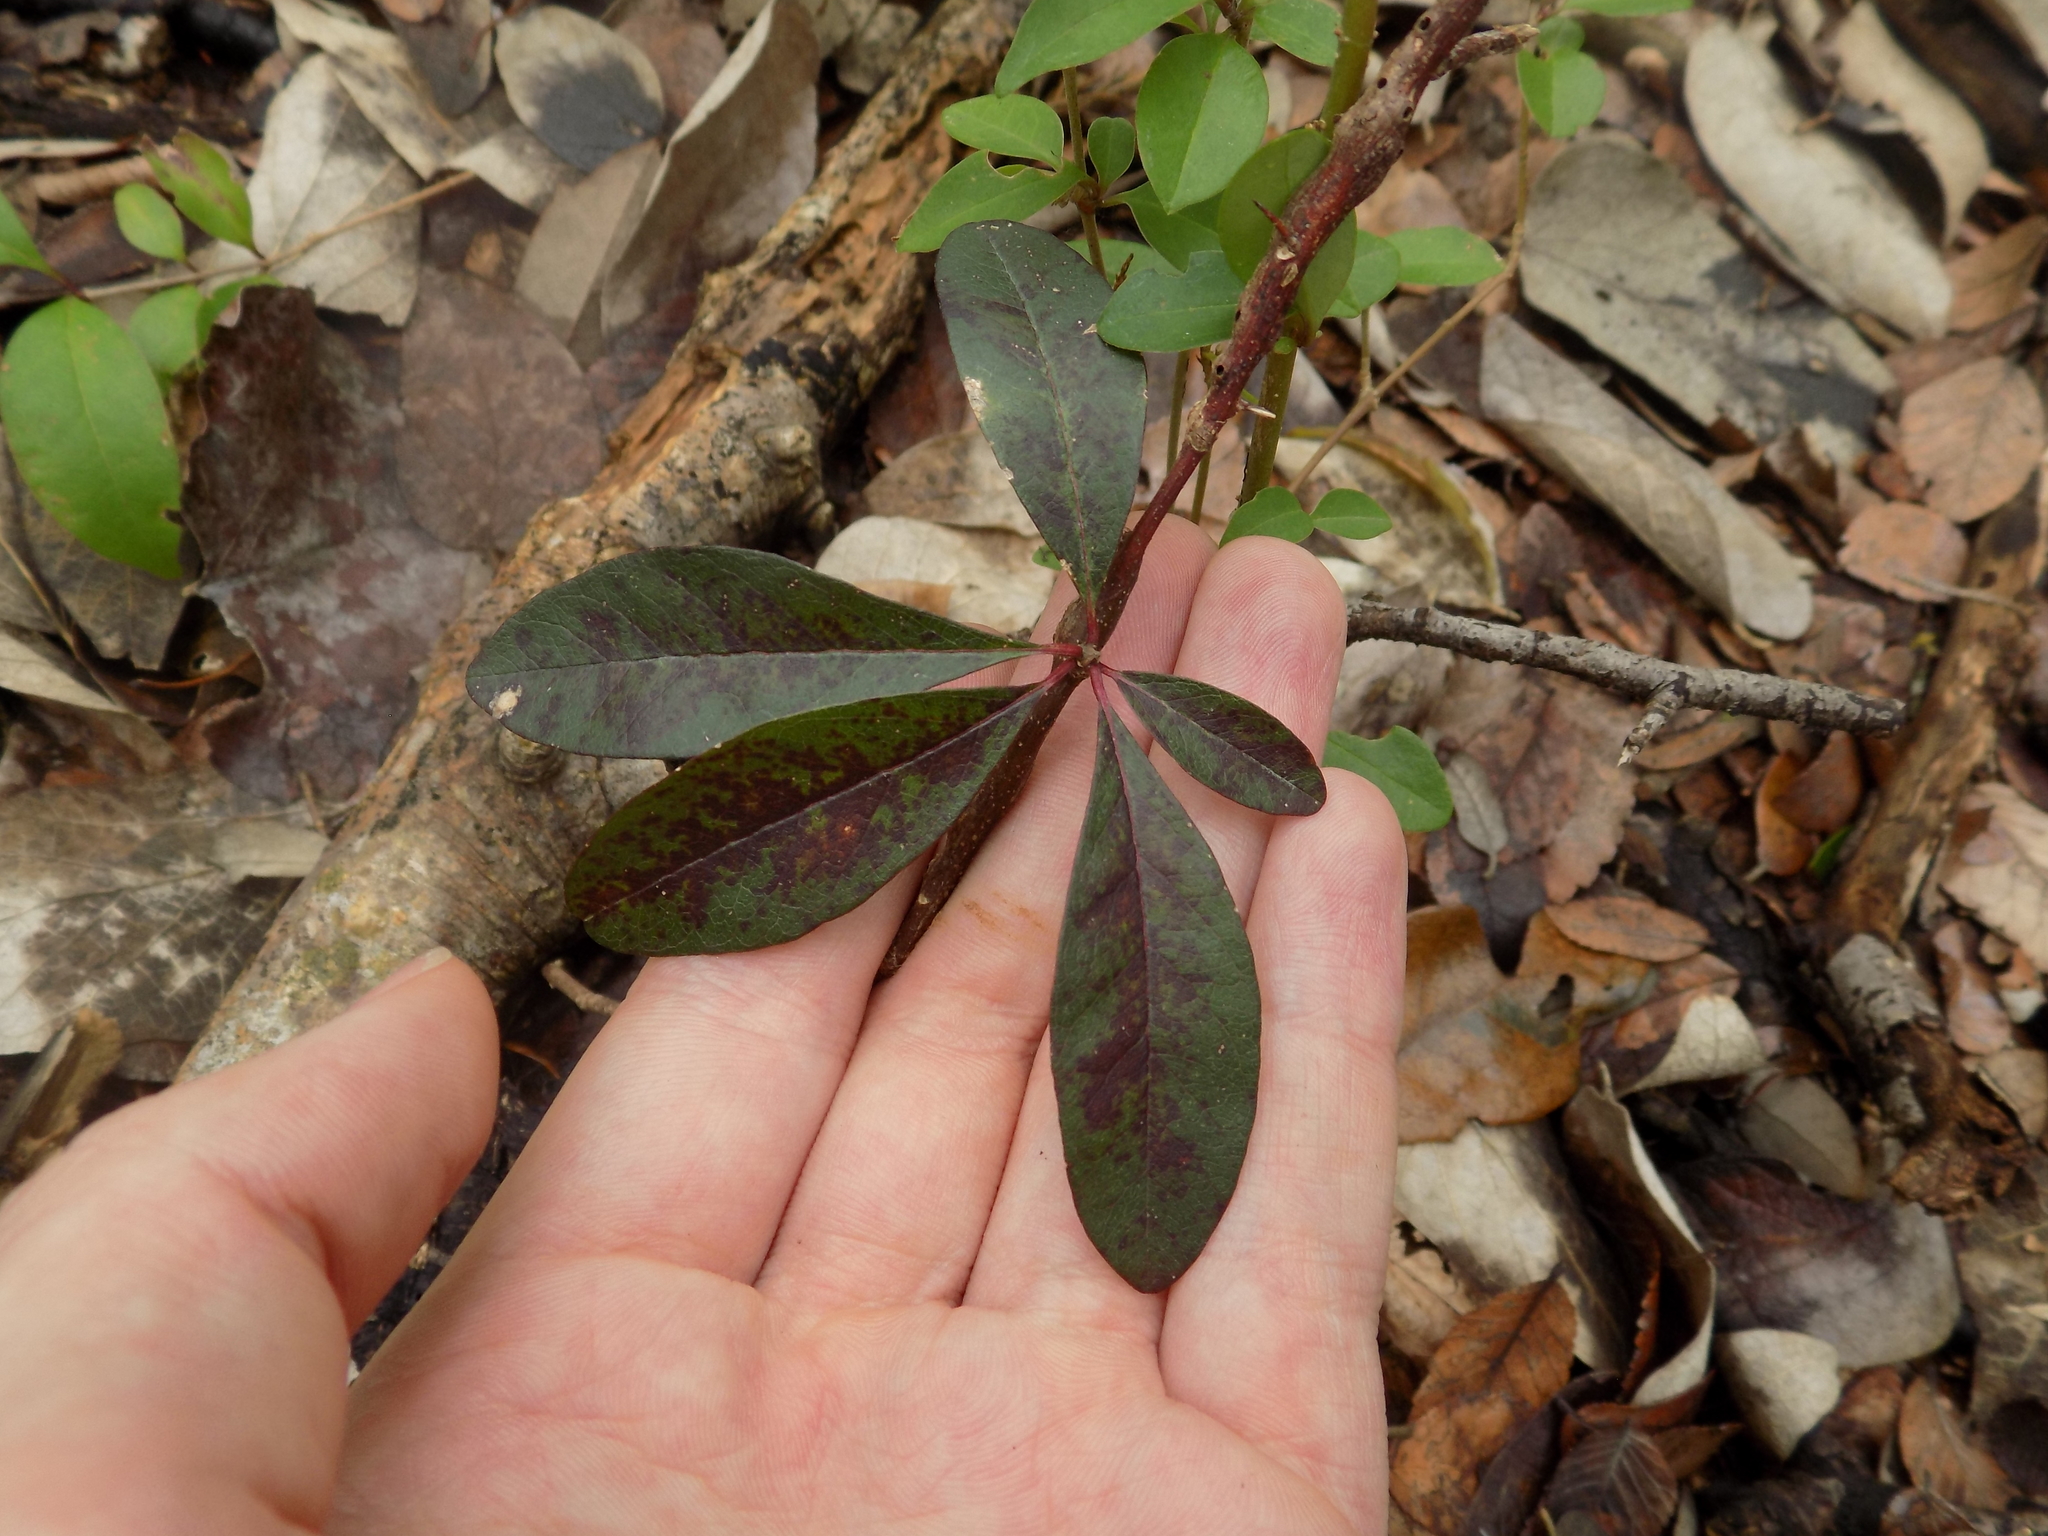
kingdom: Plantae
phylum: Tracheophyta
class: Magnoliopsida
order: Ericales
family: Sapotaceae
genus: Sideroxylon
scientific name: Sideroxylon lanuginosum
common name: Chittamwood
